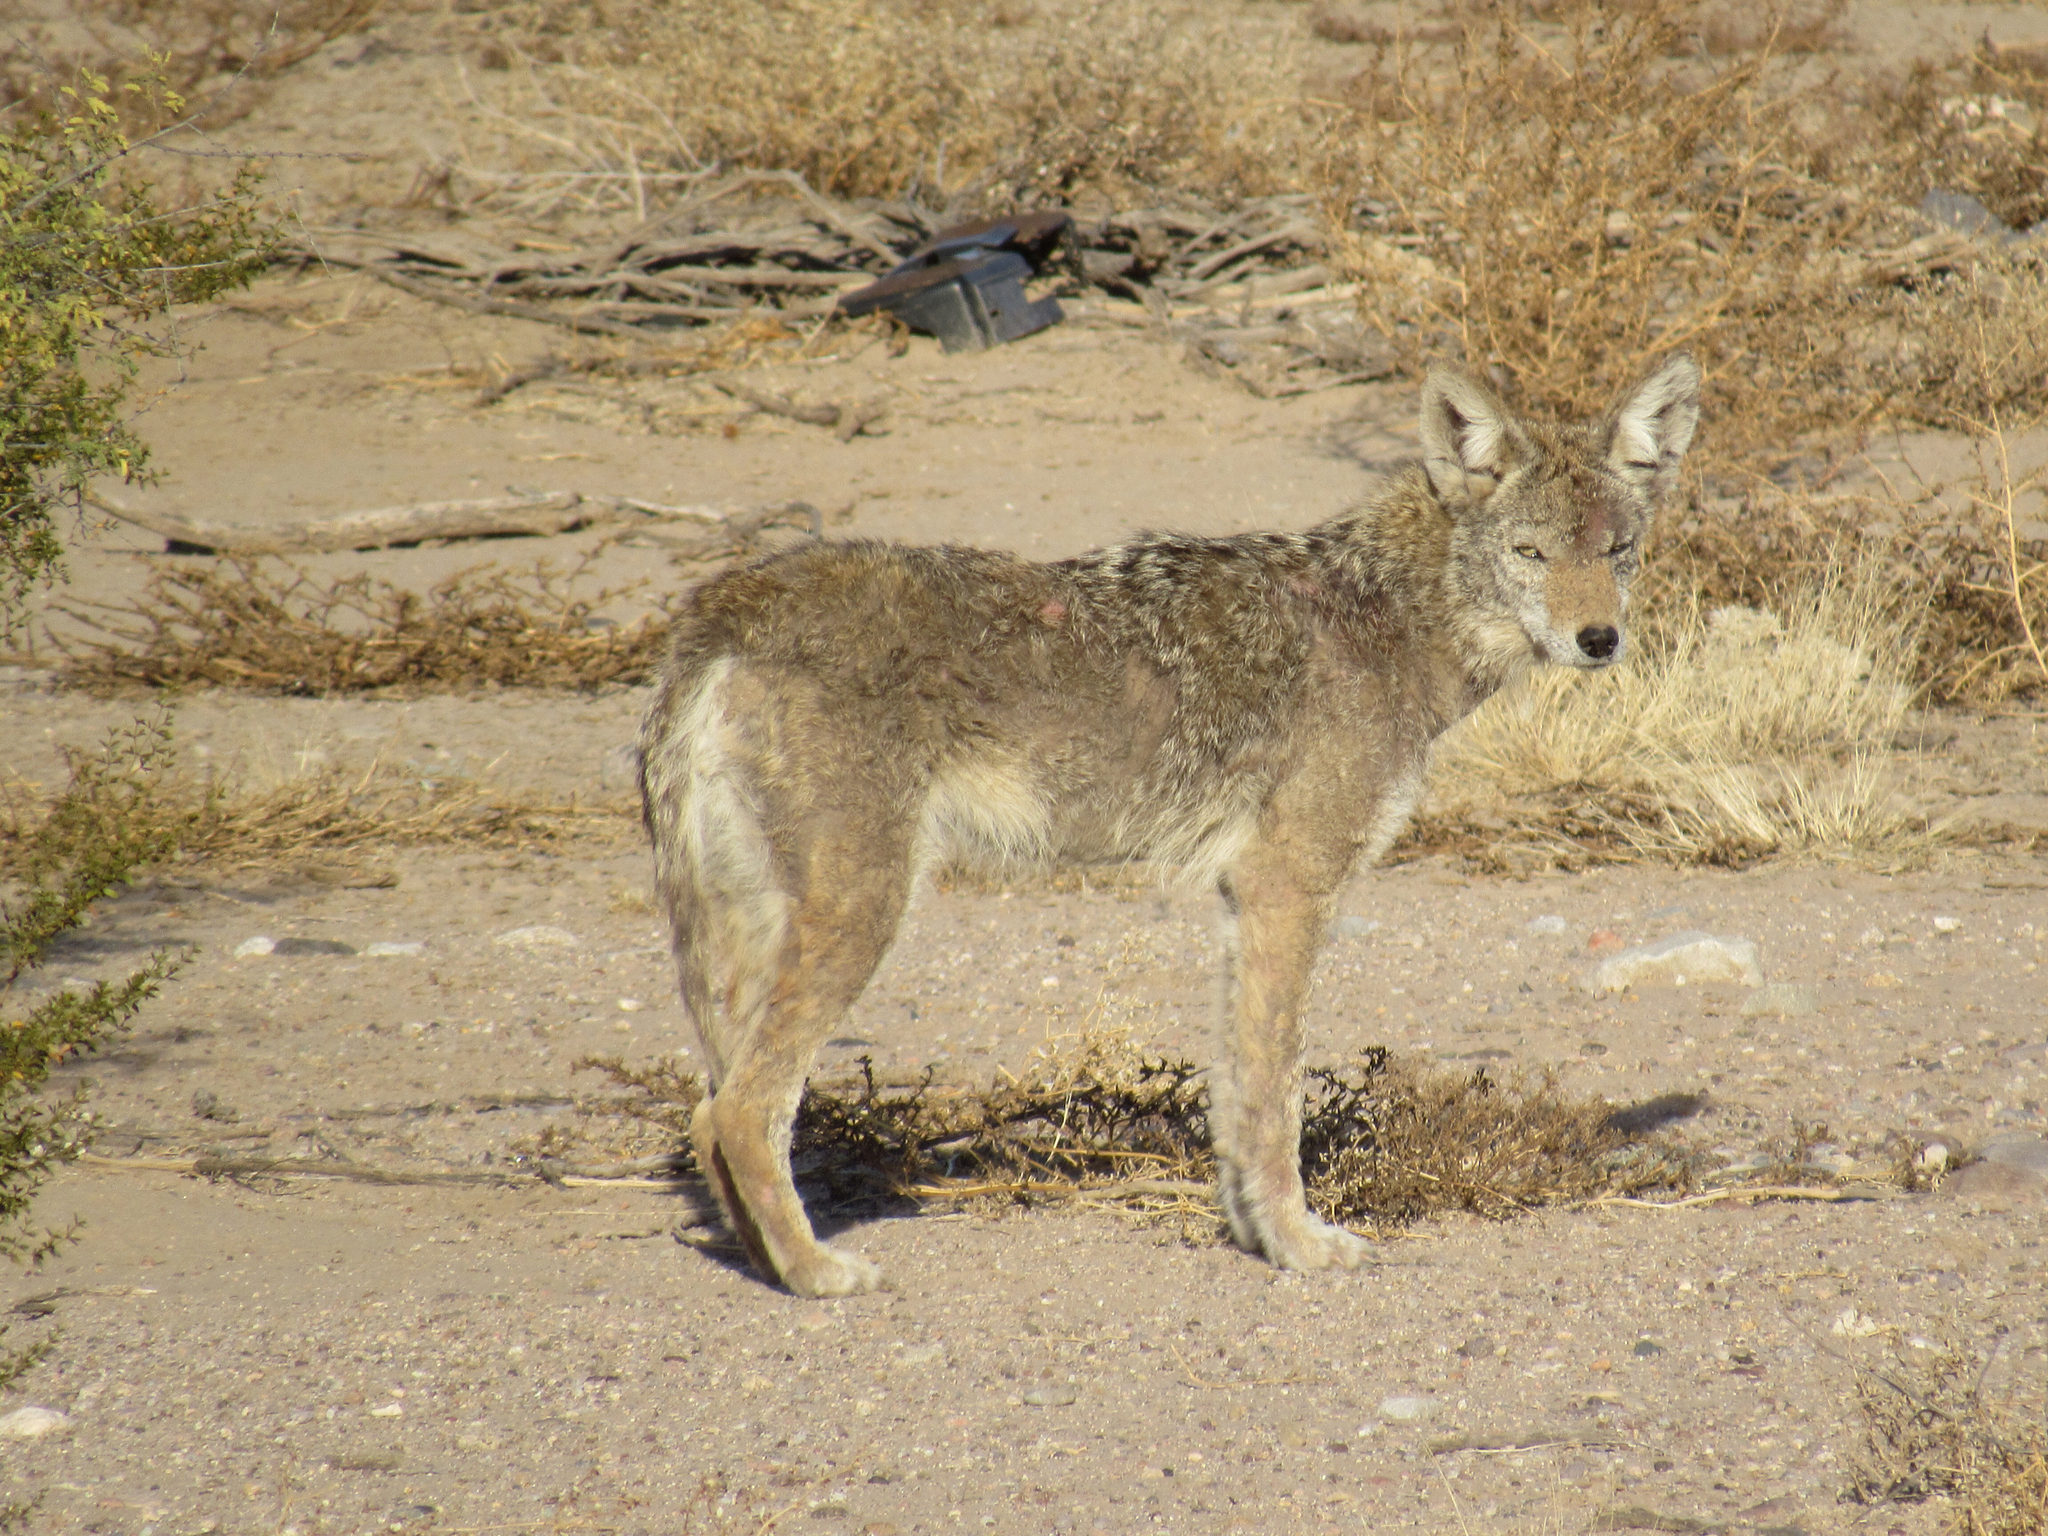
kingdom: Animalia
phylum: Chordata
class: Mammalia
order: Carnivora
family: Canidae
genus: Canis
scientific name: Canis latrans
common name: Coyote
